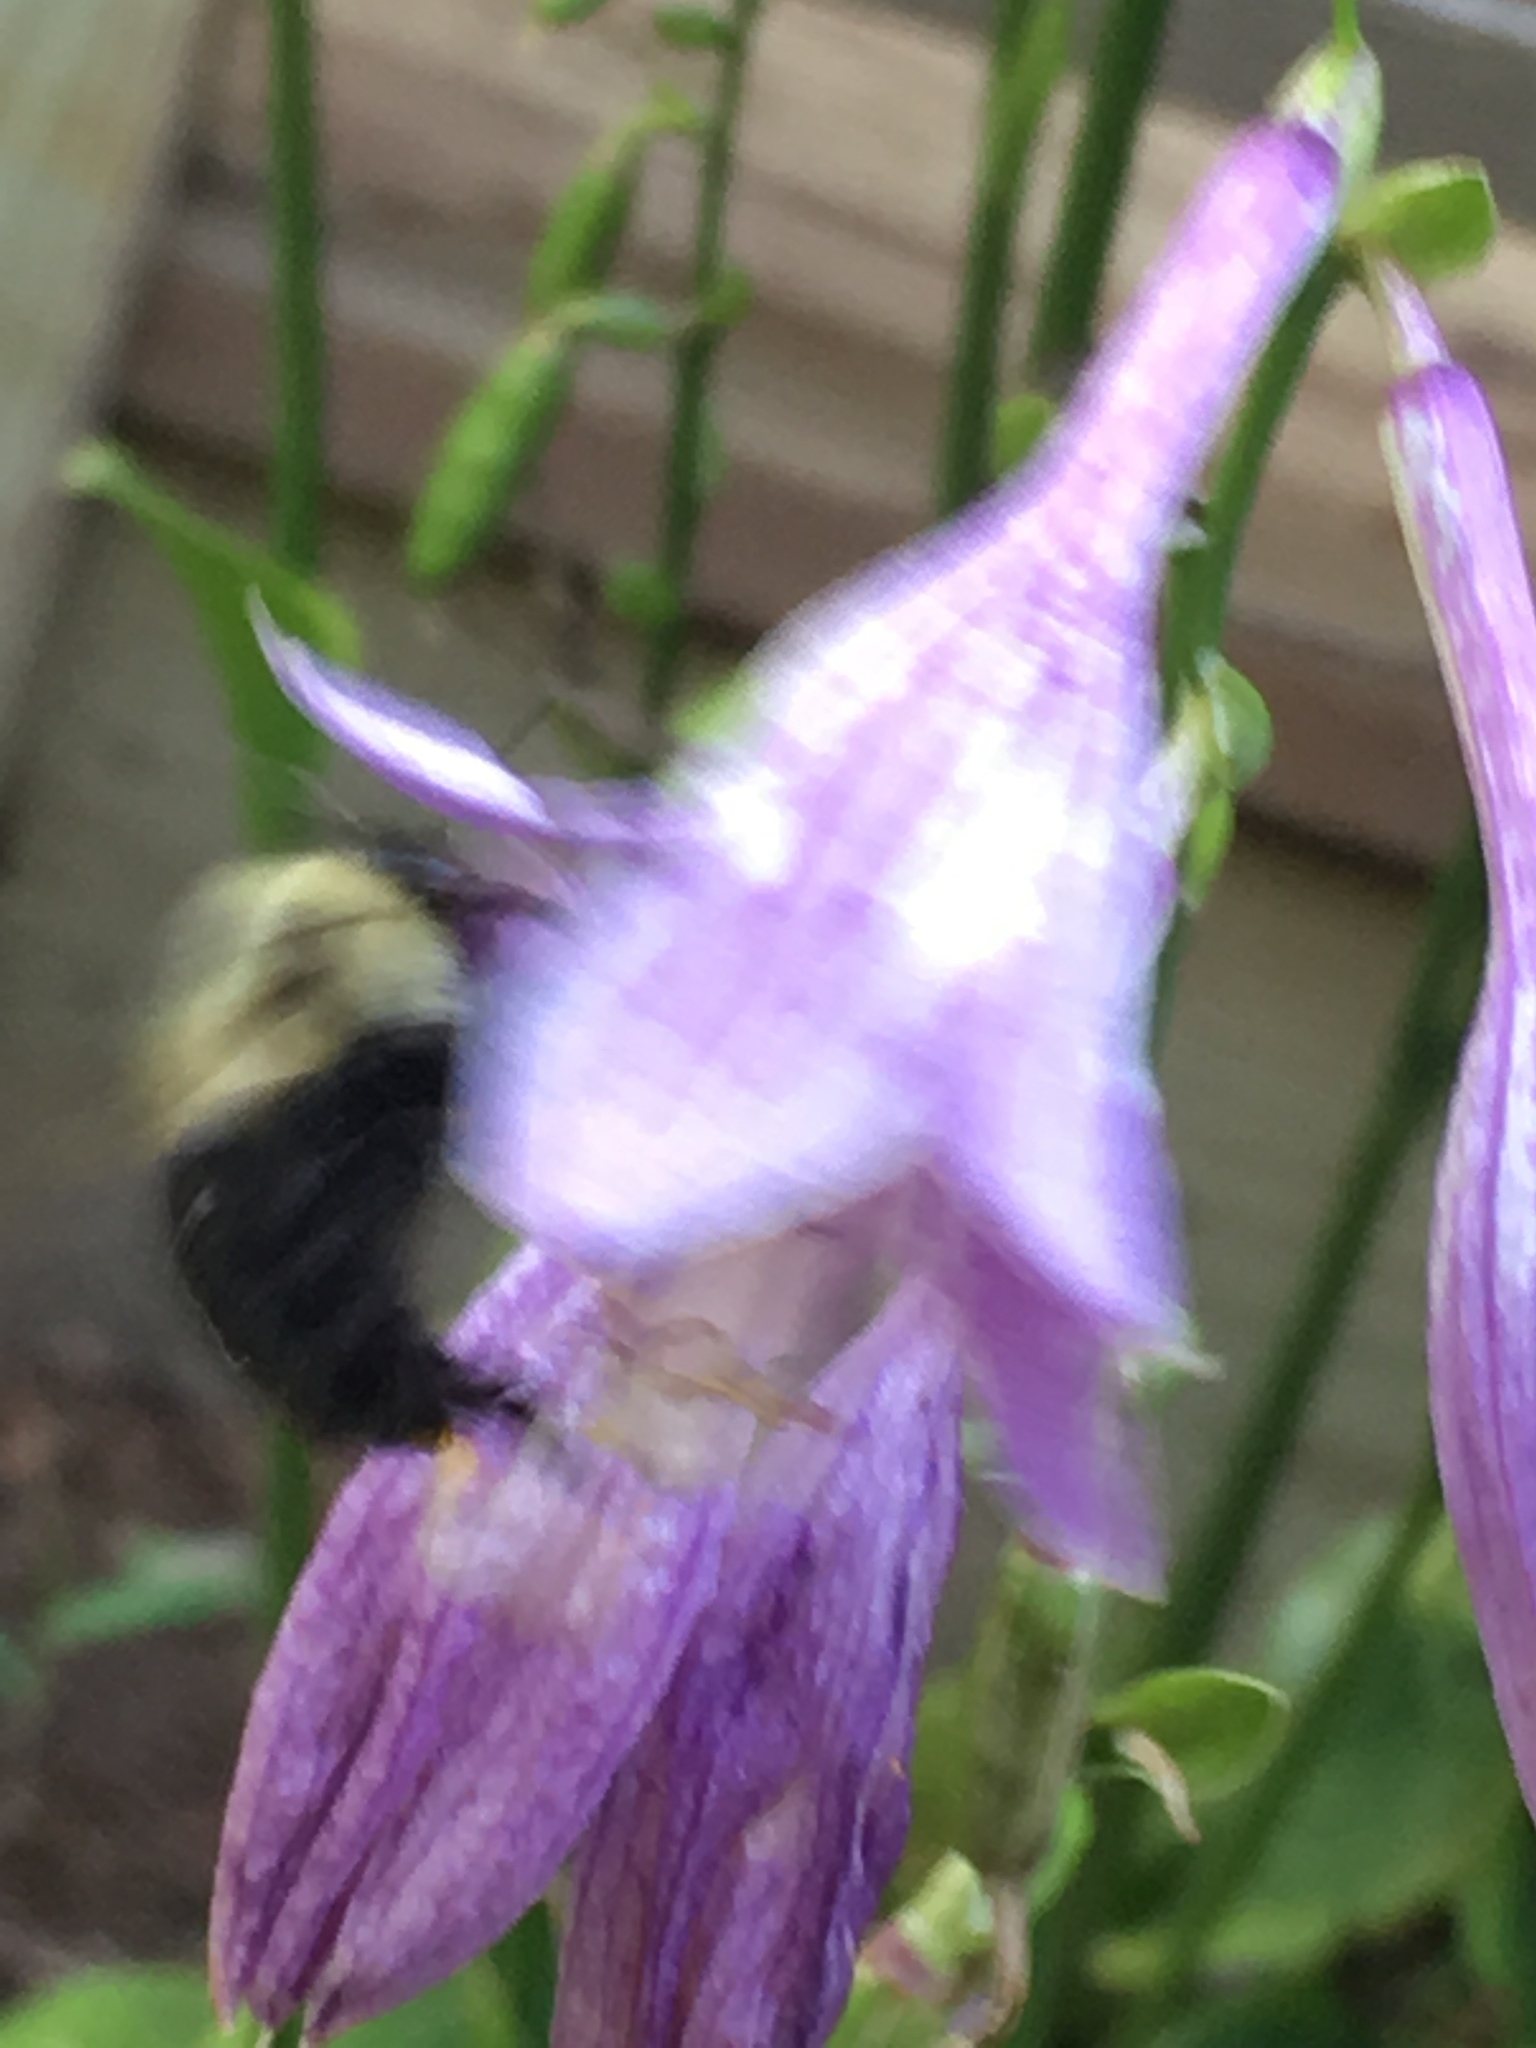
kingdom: Animalia
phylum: Arthropoda
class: Insecta
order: Hymenoptera
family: Apidae
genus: Bombus
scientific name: Bombus impatiens
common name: Common eastern bumble bee
